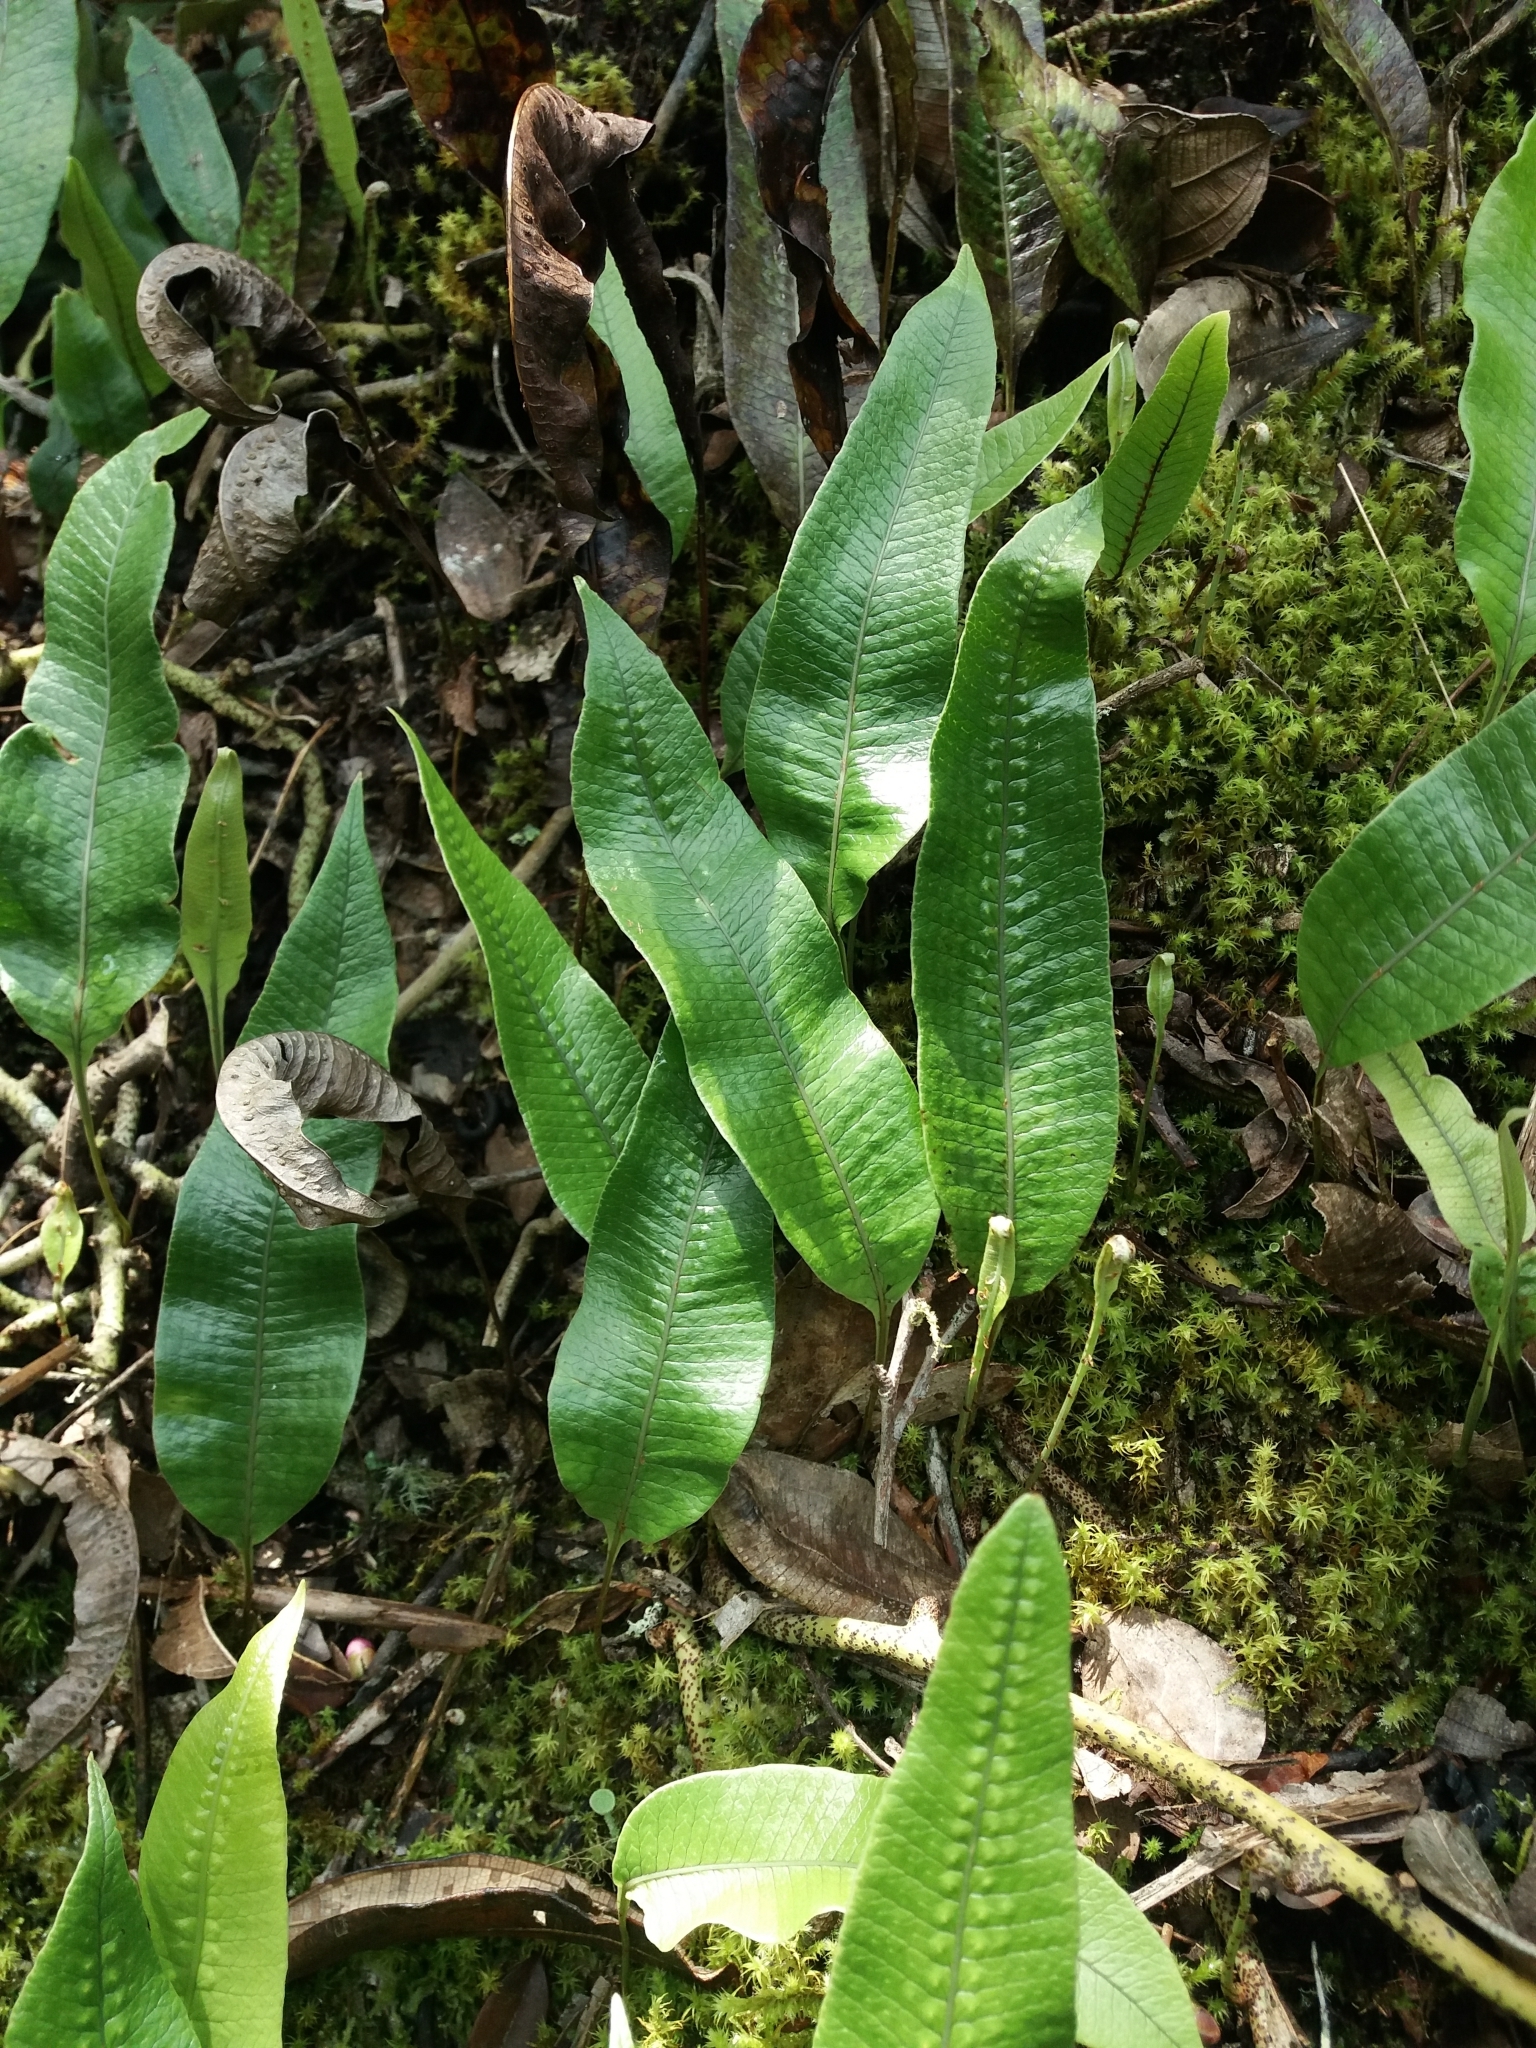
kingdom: Plantae
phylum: Tracheophyta
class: Polypodiopsida
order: Polypodiales
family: Polypodiaceae
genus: Serpocaulon
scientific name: Serpocaulon levigatum
